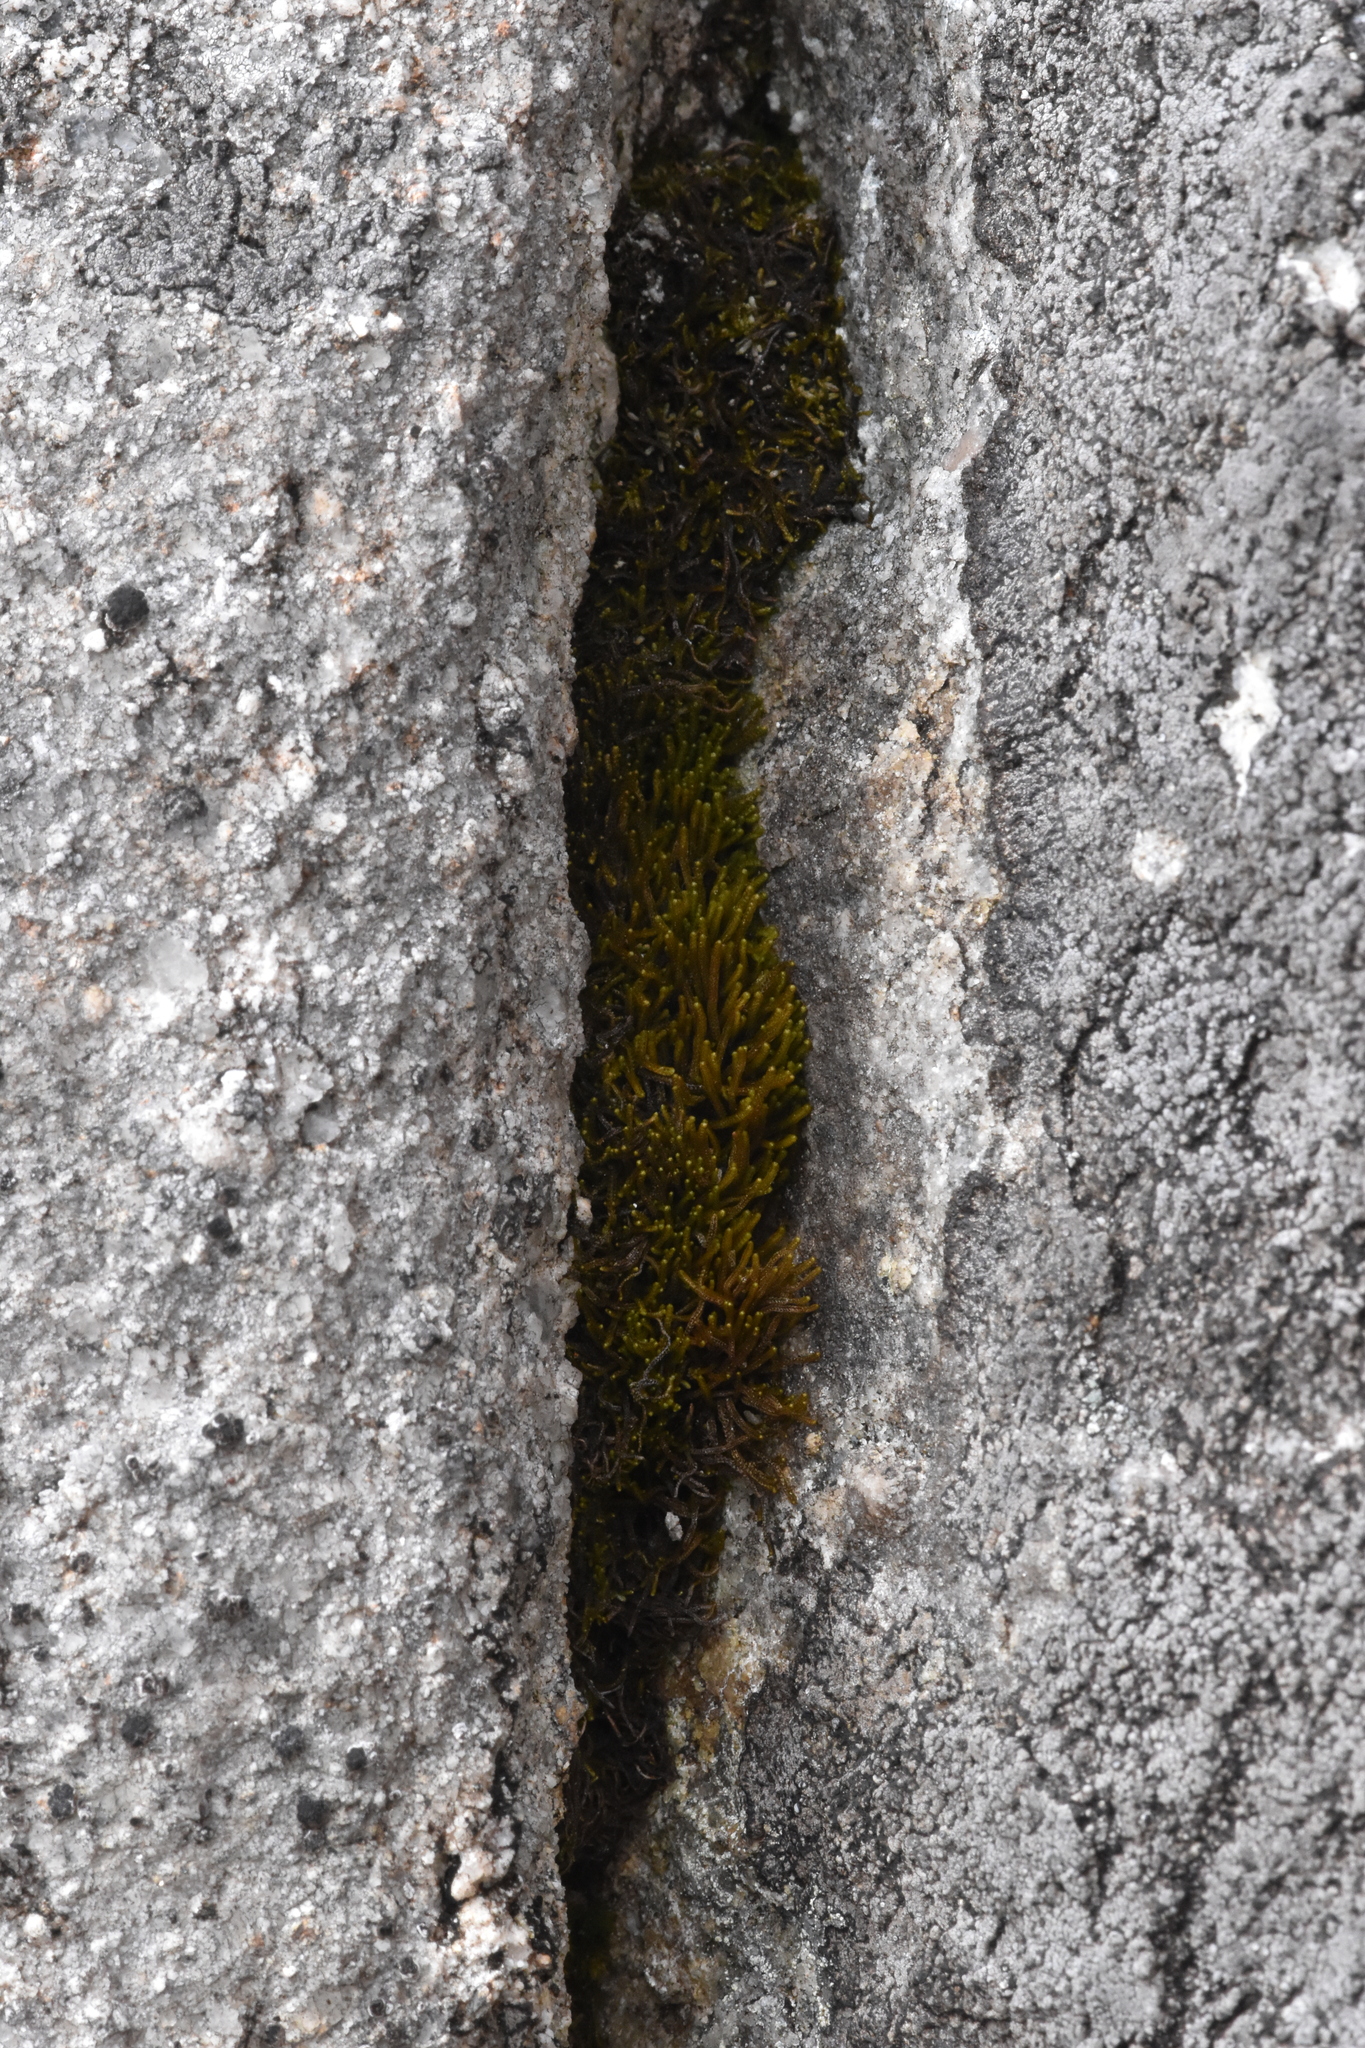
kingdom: Plantae
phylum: Marchantiophyta
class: Jungermanniopsida
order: Jungermanniales
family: Anastrophyllaceae
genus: Tetralophozia
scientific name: Tetralophozia setiformis
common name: Monster pawwort
